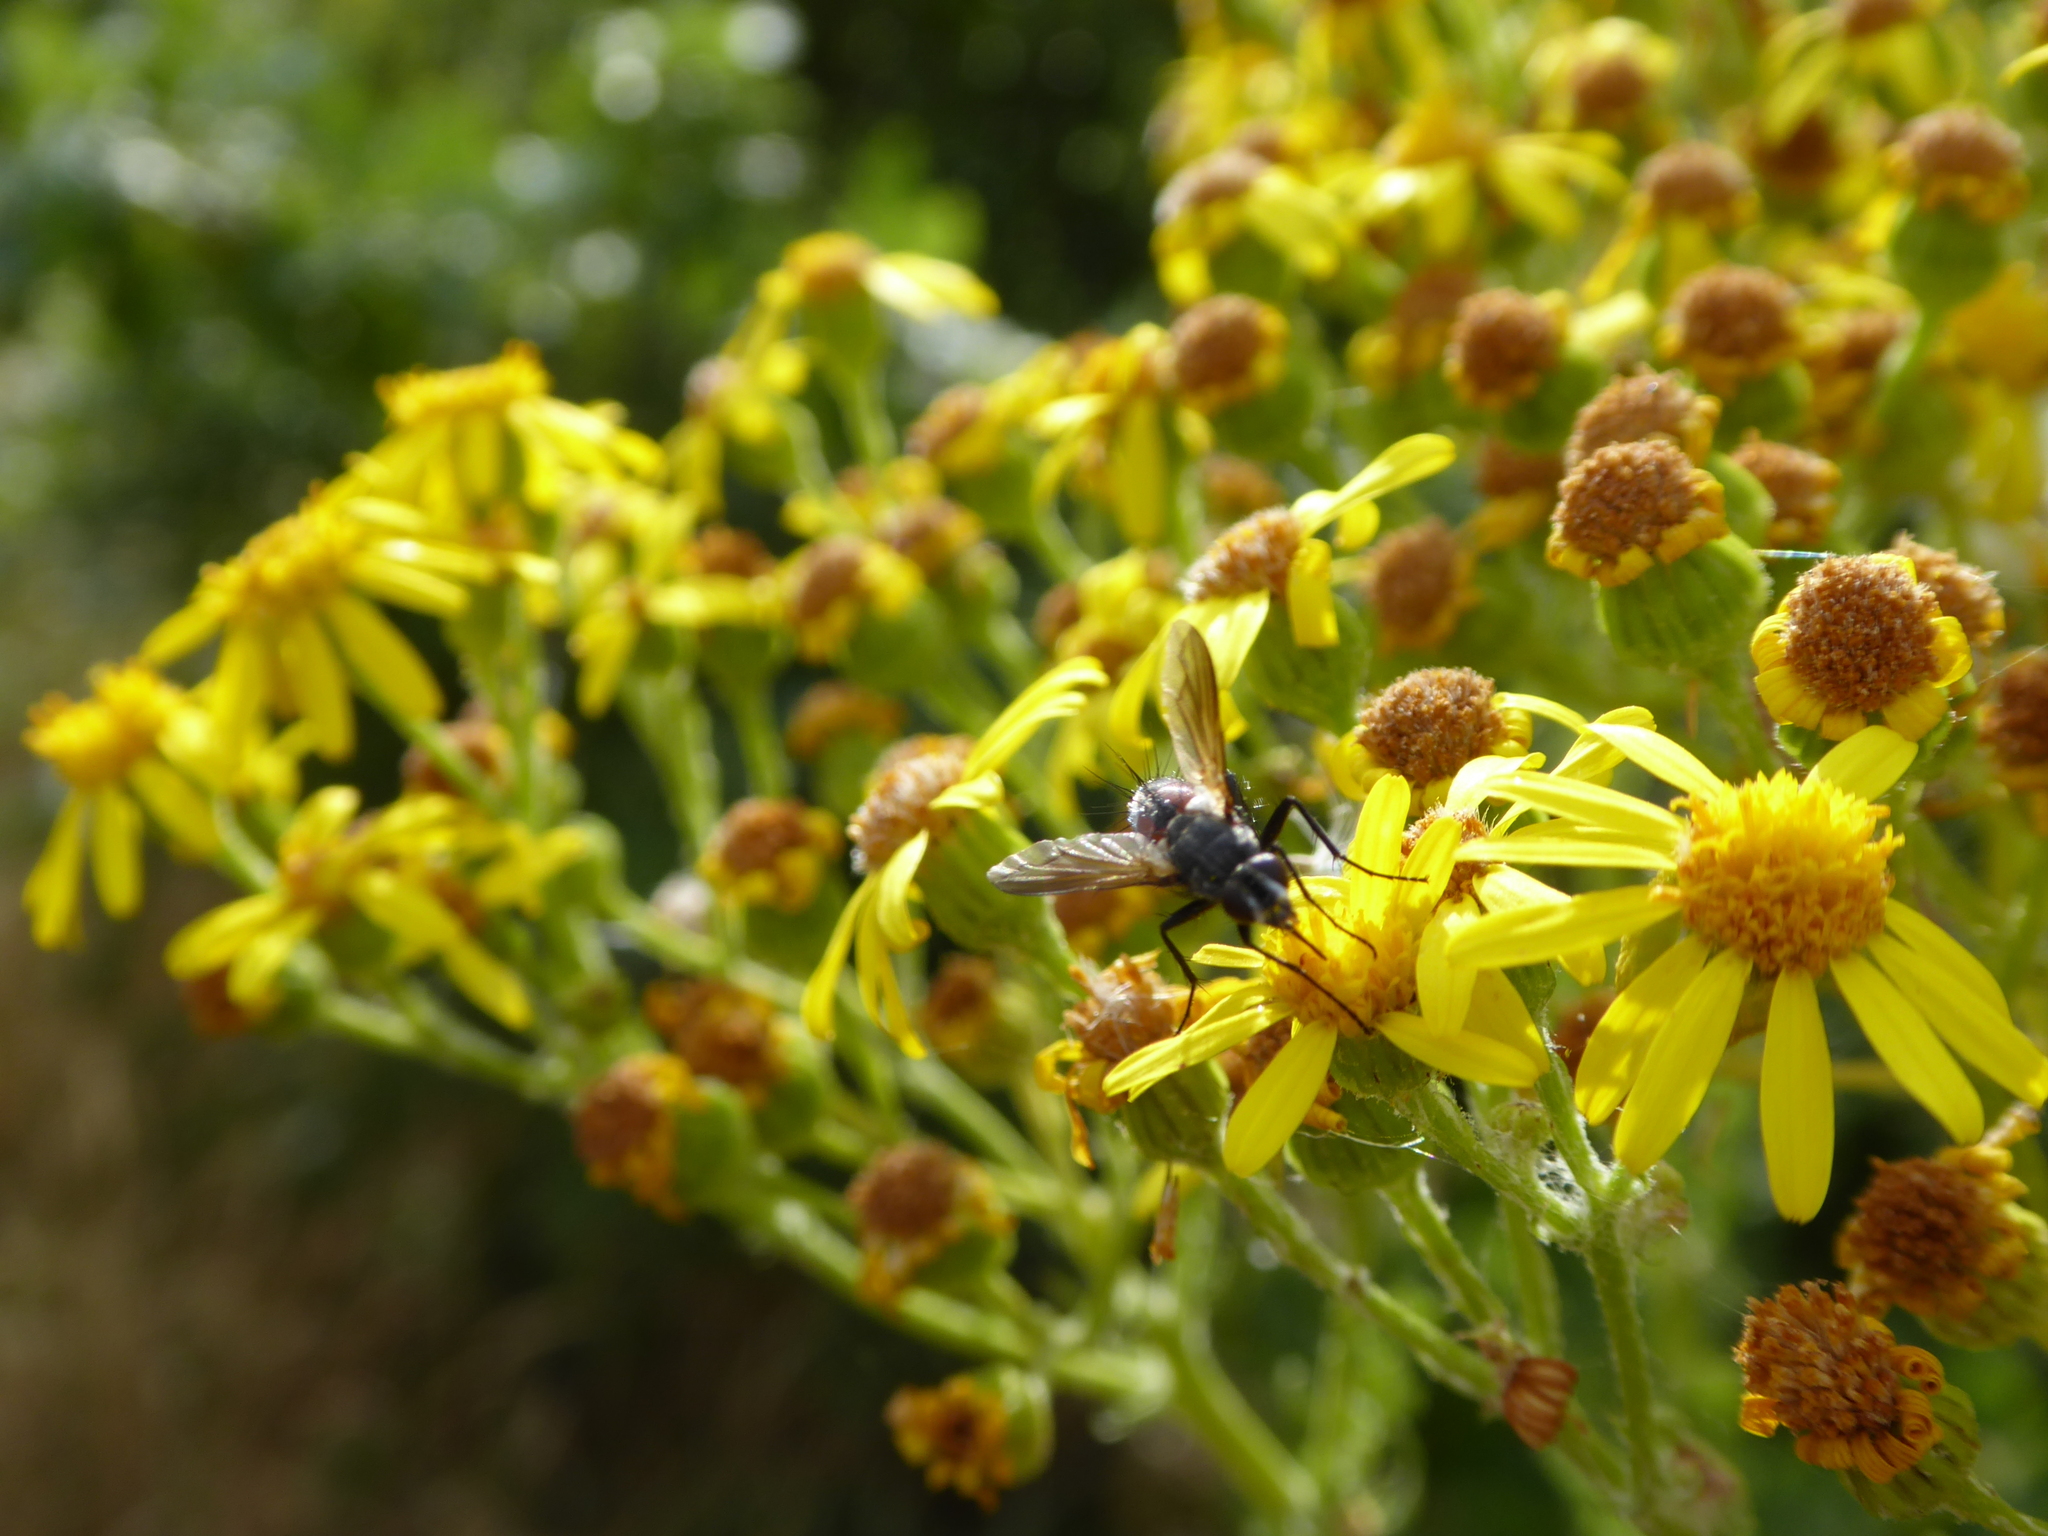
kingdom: Animalia
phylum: Arthropoda
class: Insecta
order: Diptera
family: Tachinidae
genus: Eriothrix
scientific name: Eriothrix rufomaculatus
